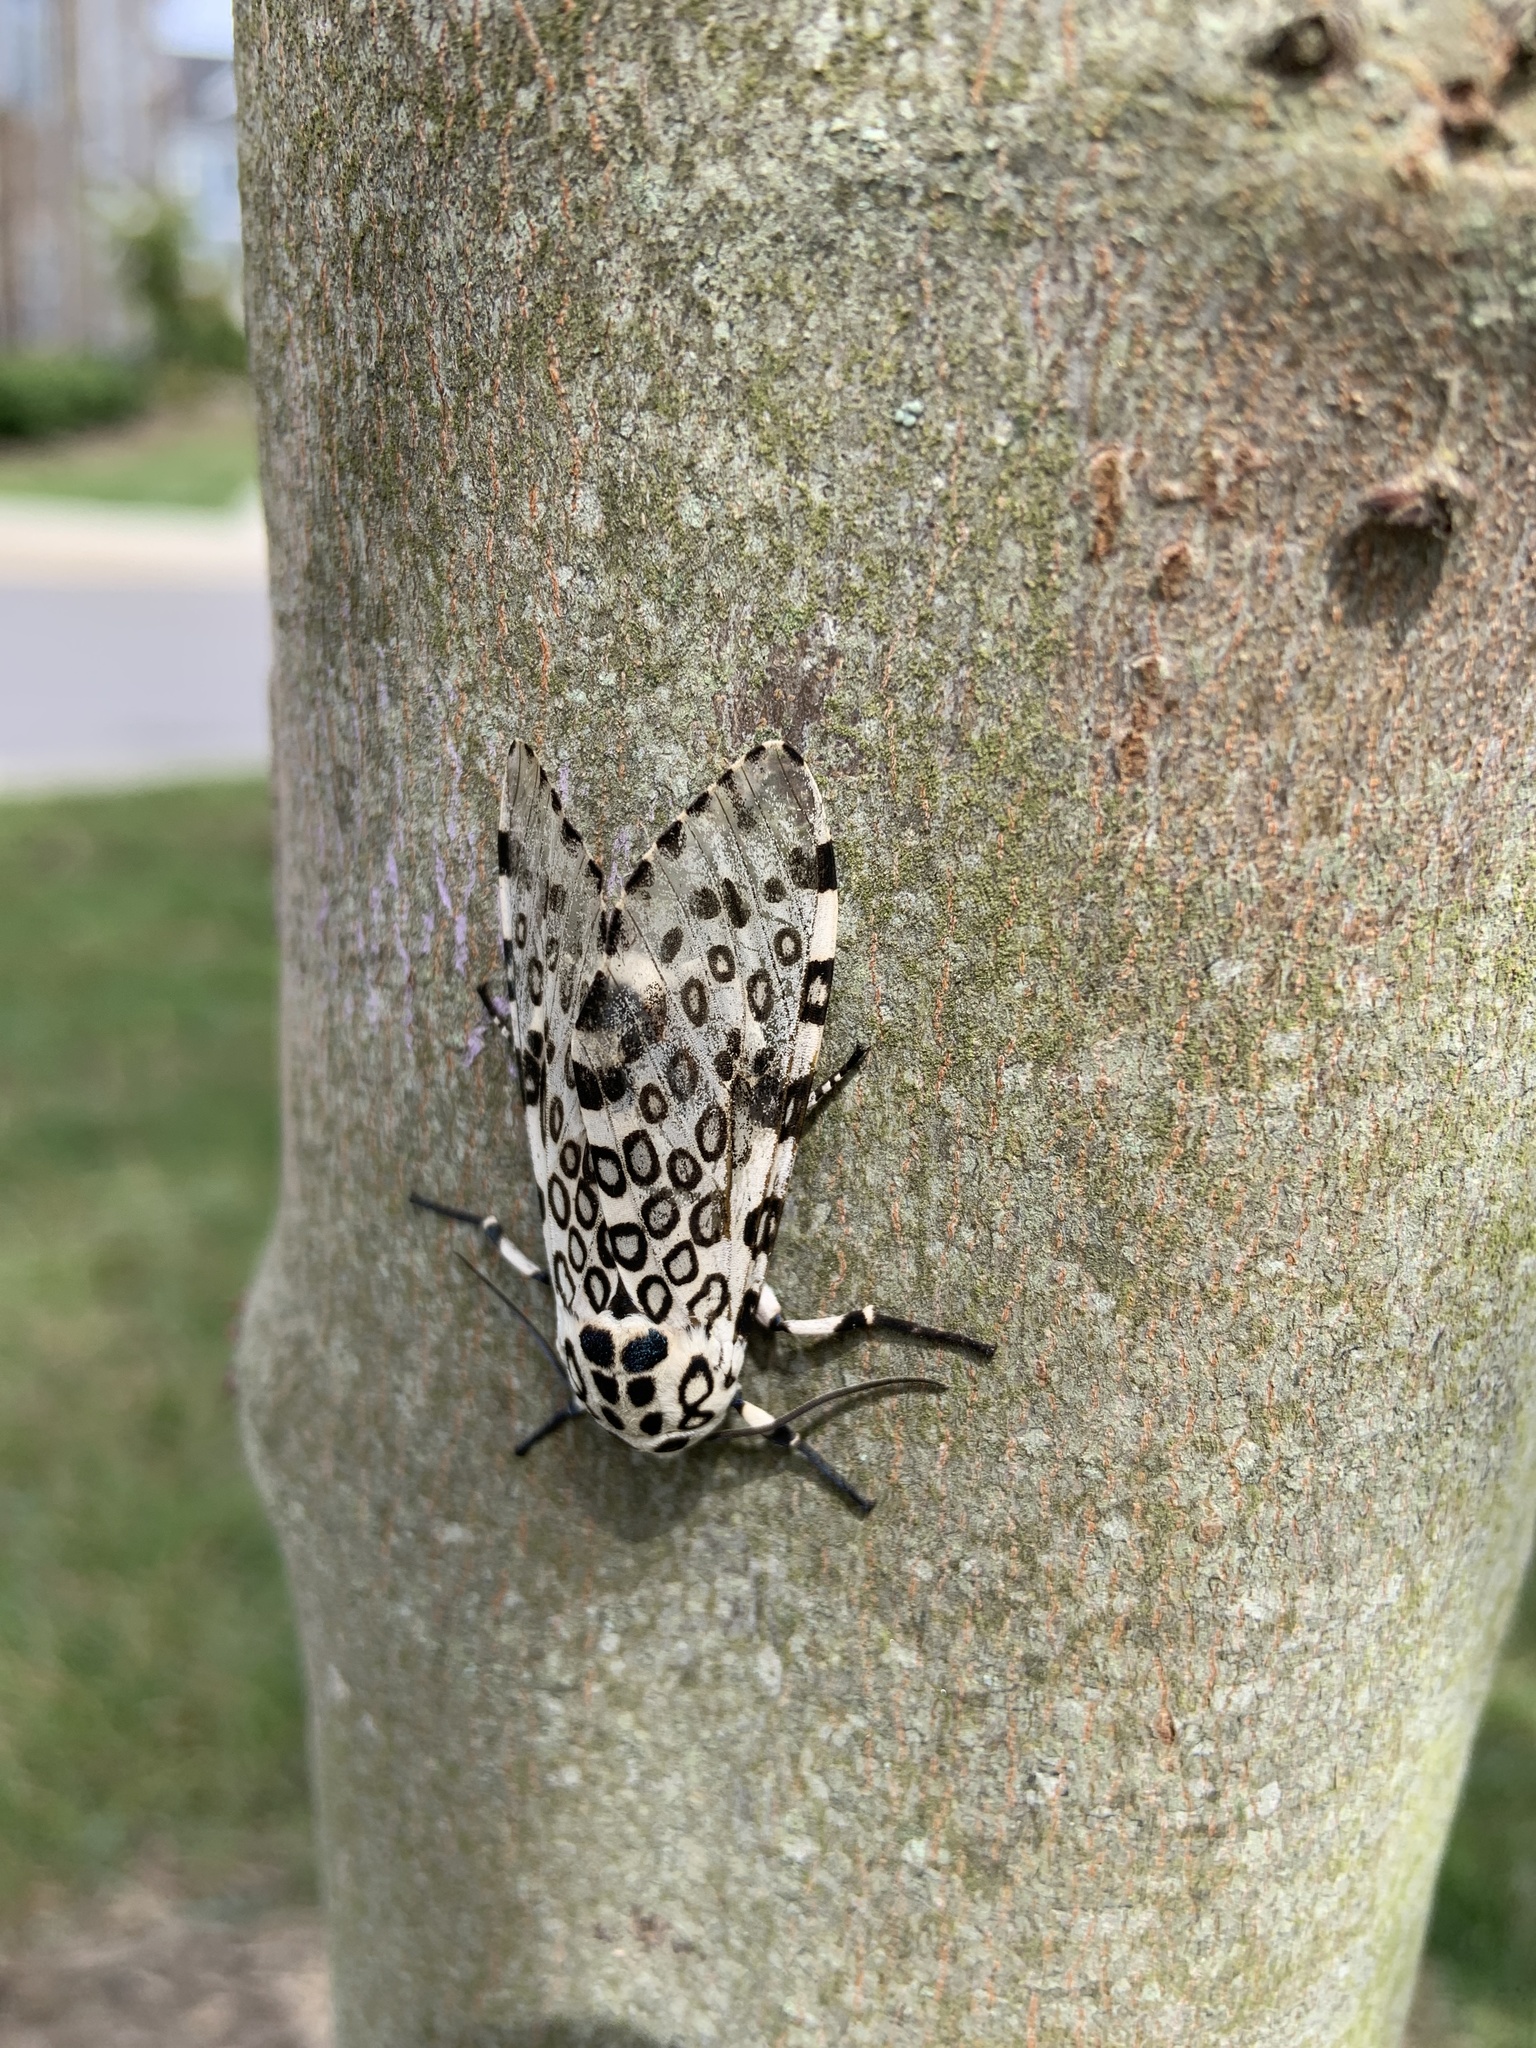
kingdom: Animalia
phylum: Arthropoda
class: Insecta
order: Lepidoptera
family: Erebidae
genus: Hypercompe
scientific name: Hypercompe scribonia
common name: Giant leopard moth
